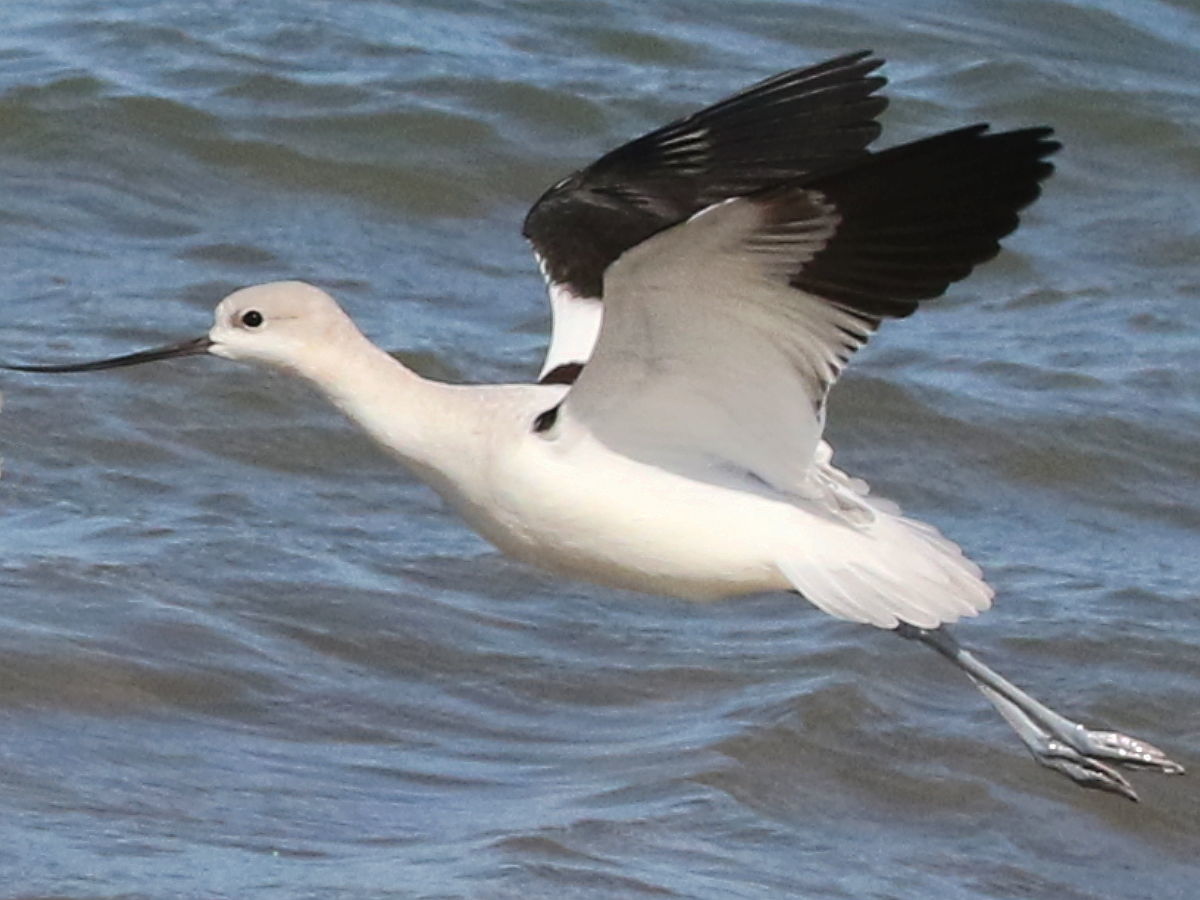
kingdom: Animalia
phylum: Chordata
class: Aves
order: Charadriiformes
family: Recurvirostridae
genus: Recurvirostra
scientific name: Recurvirostra americana
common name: American avocet
